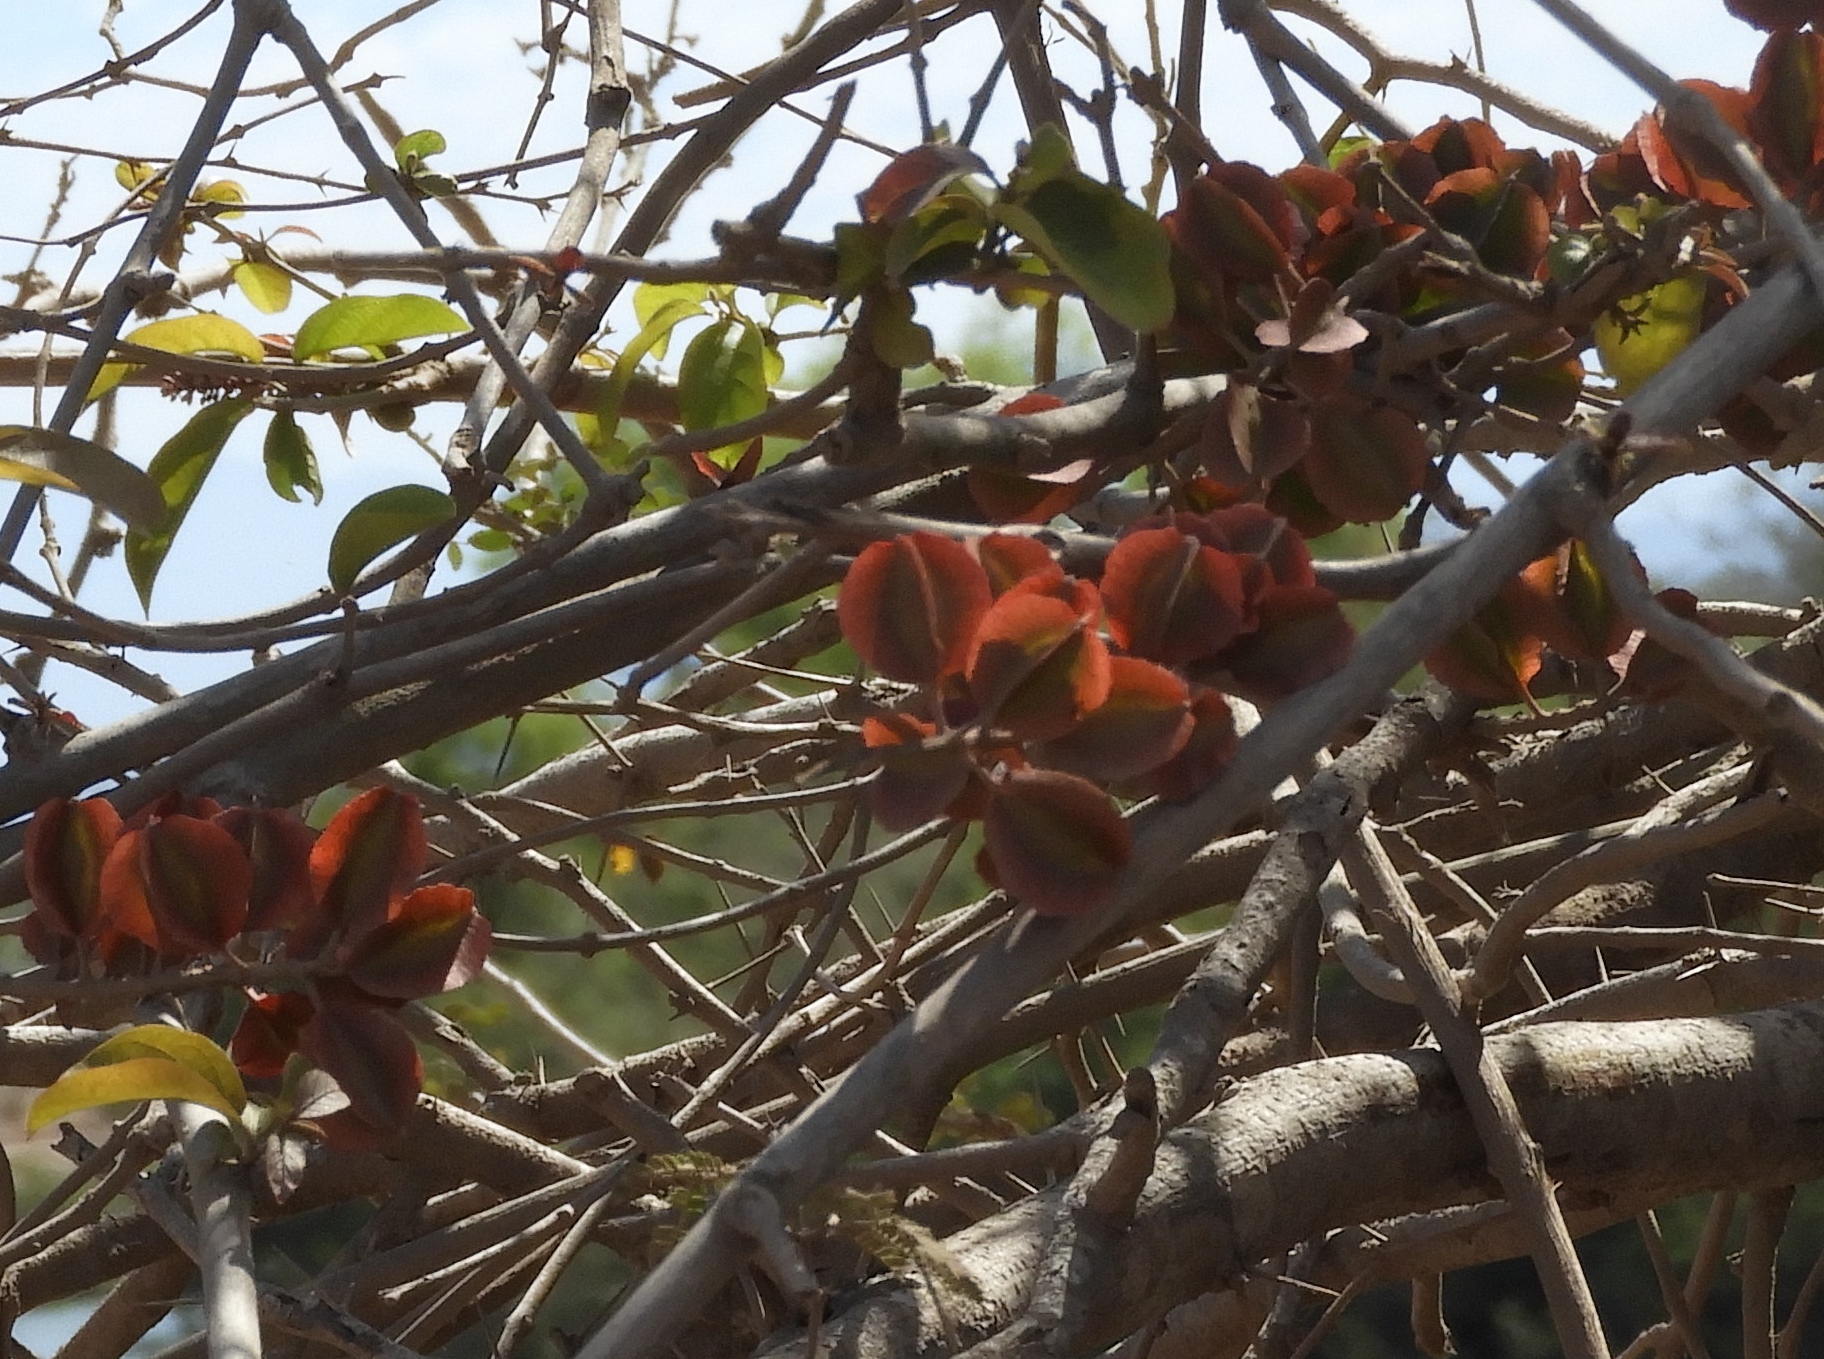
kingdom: Plantae
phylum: Tracheophyta
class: Magnoliopsida
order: Myrtales
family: Combretaceae
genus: Combretum
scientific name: Combretum farinosum
